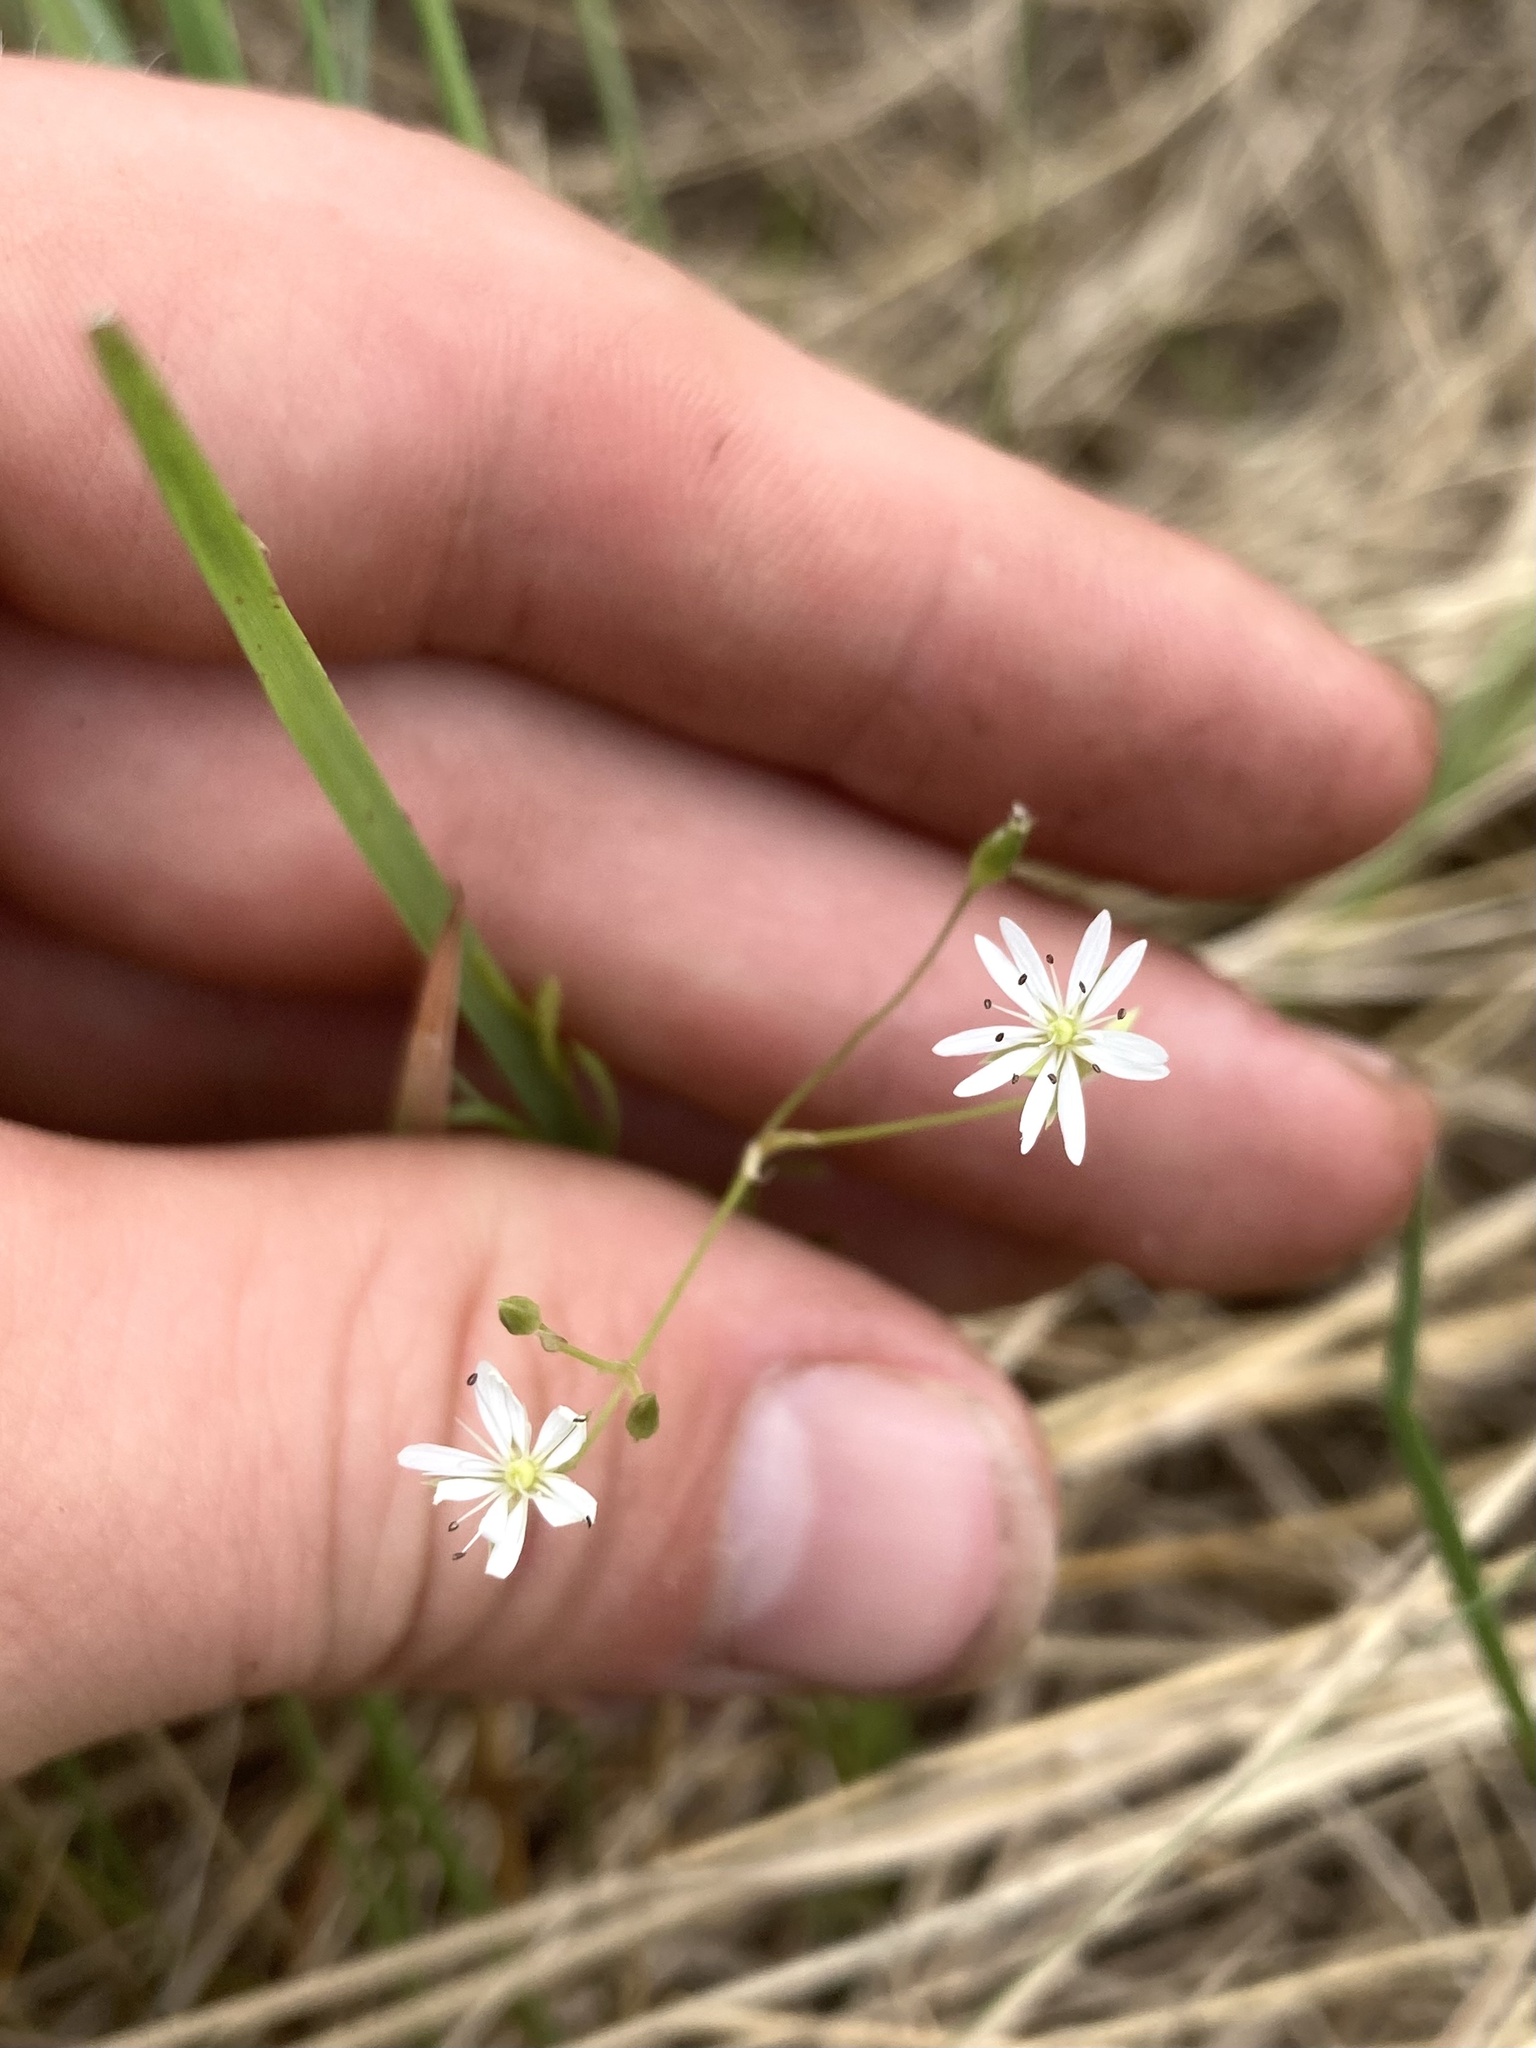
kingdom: Plantae
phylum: Tracheophyta
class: Magnoliopsida
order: Caryophyllales
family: Caryophyllaceae
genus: Stellaria
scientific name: Stellaria longifolia
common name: Long-leaved chickweed
